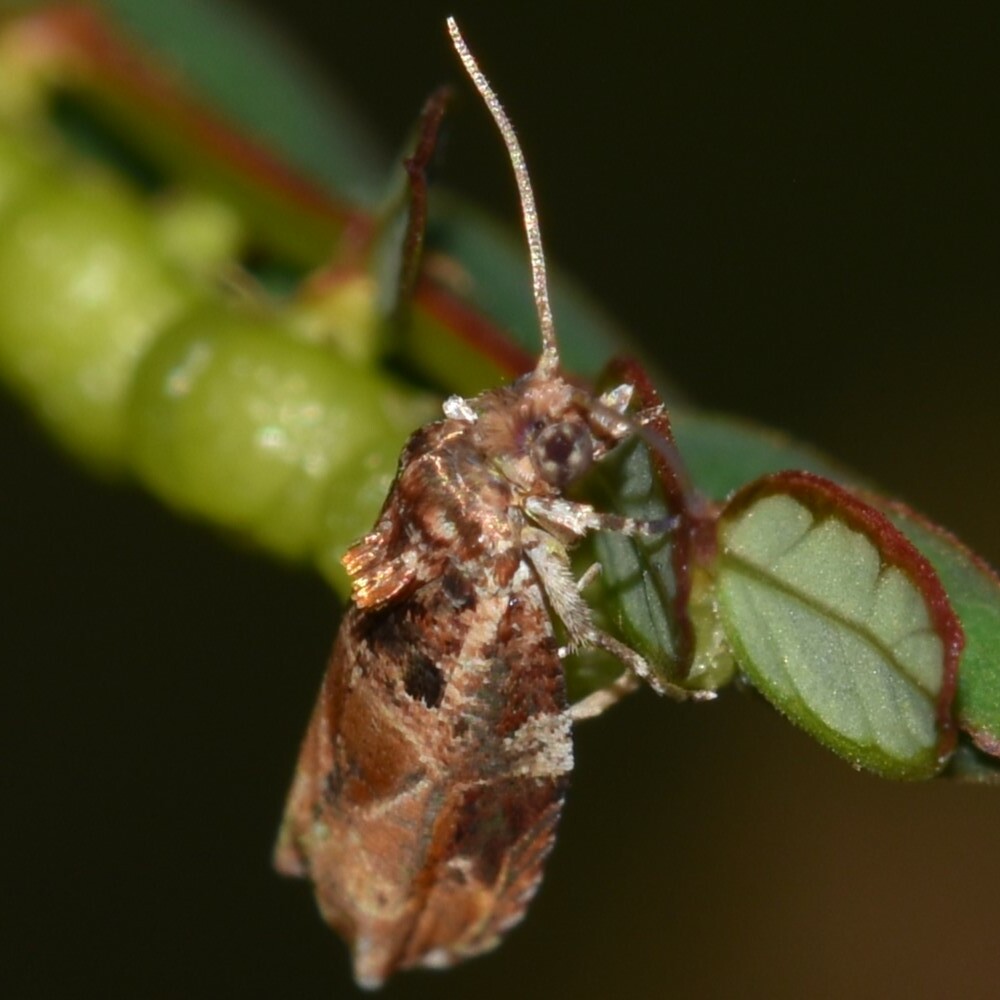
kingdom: Animalia
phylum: Arthropoda
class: Insecta
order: Lepidoptera
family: Tortricidae
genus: Cacocharis
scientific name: Cacocharis cymotoma
